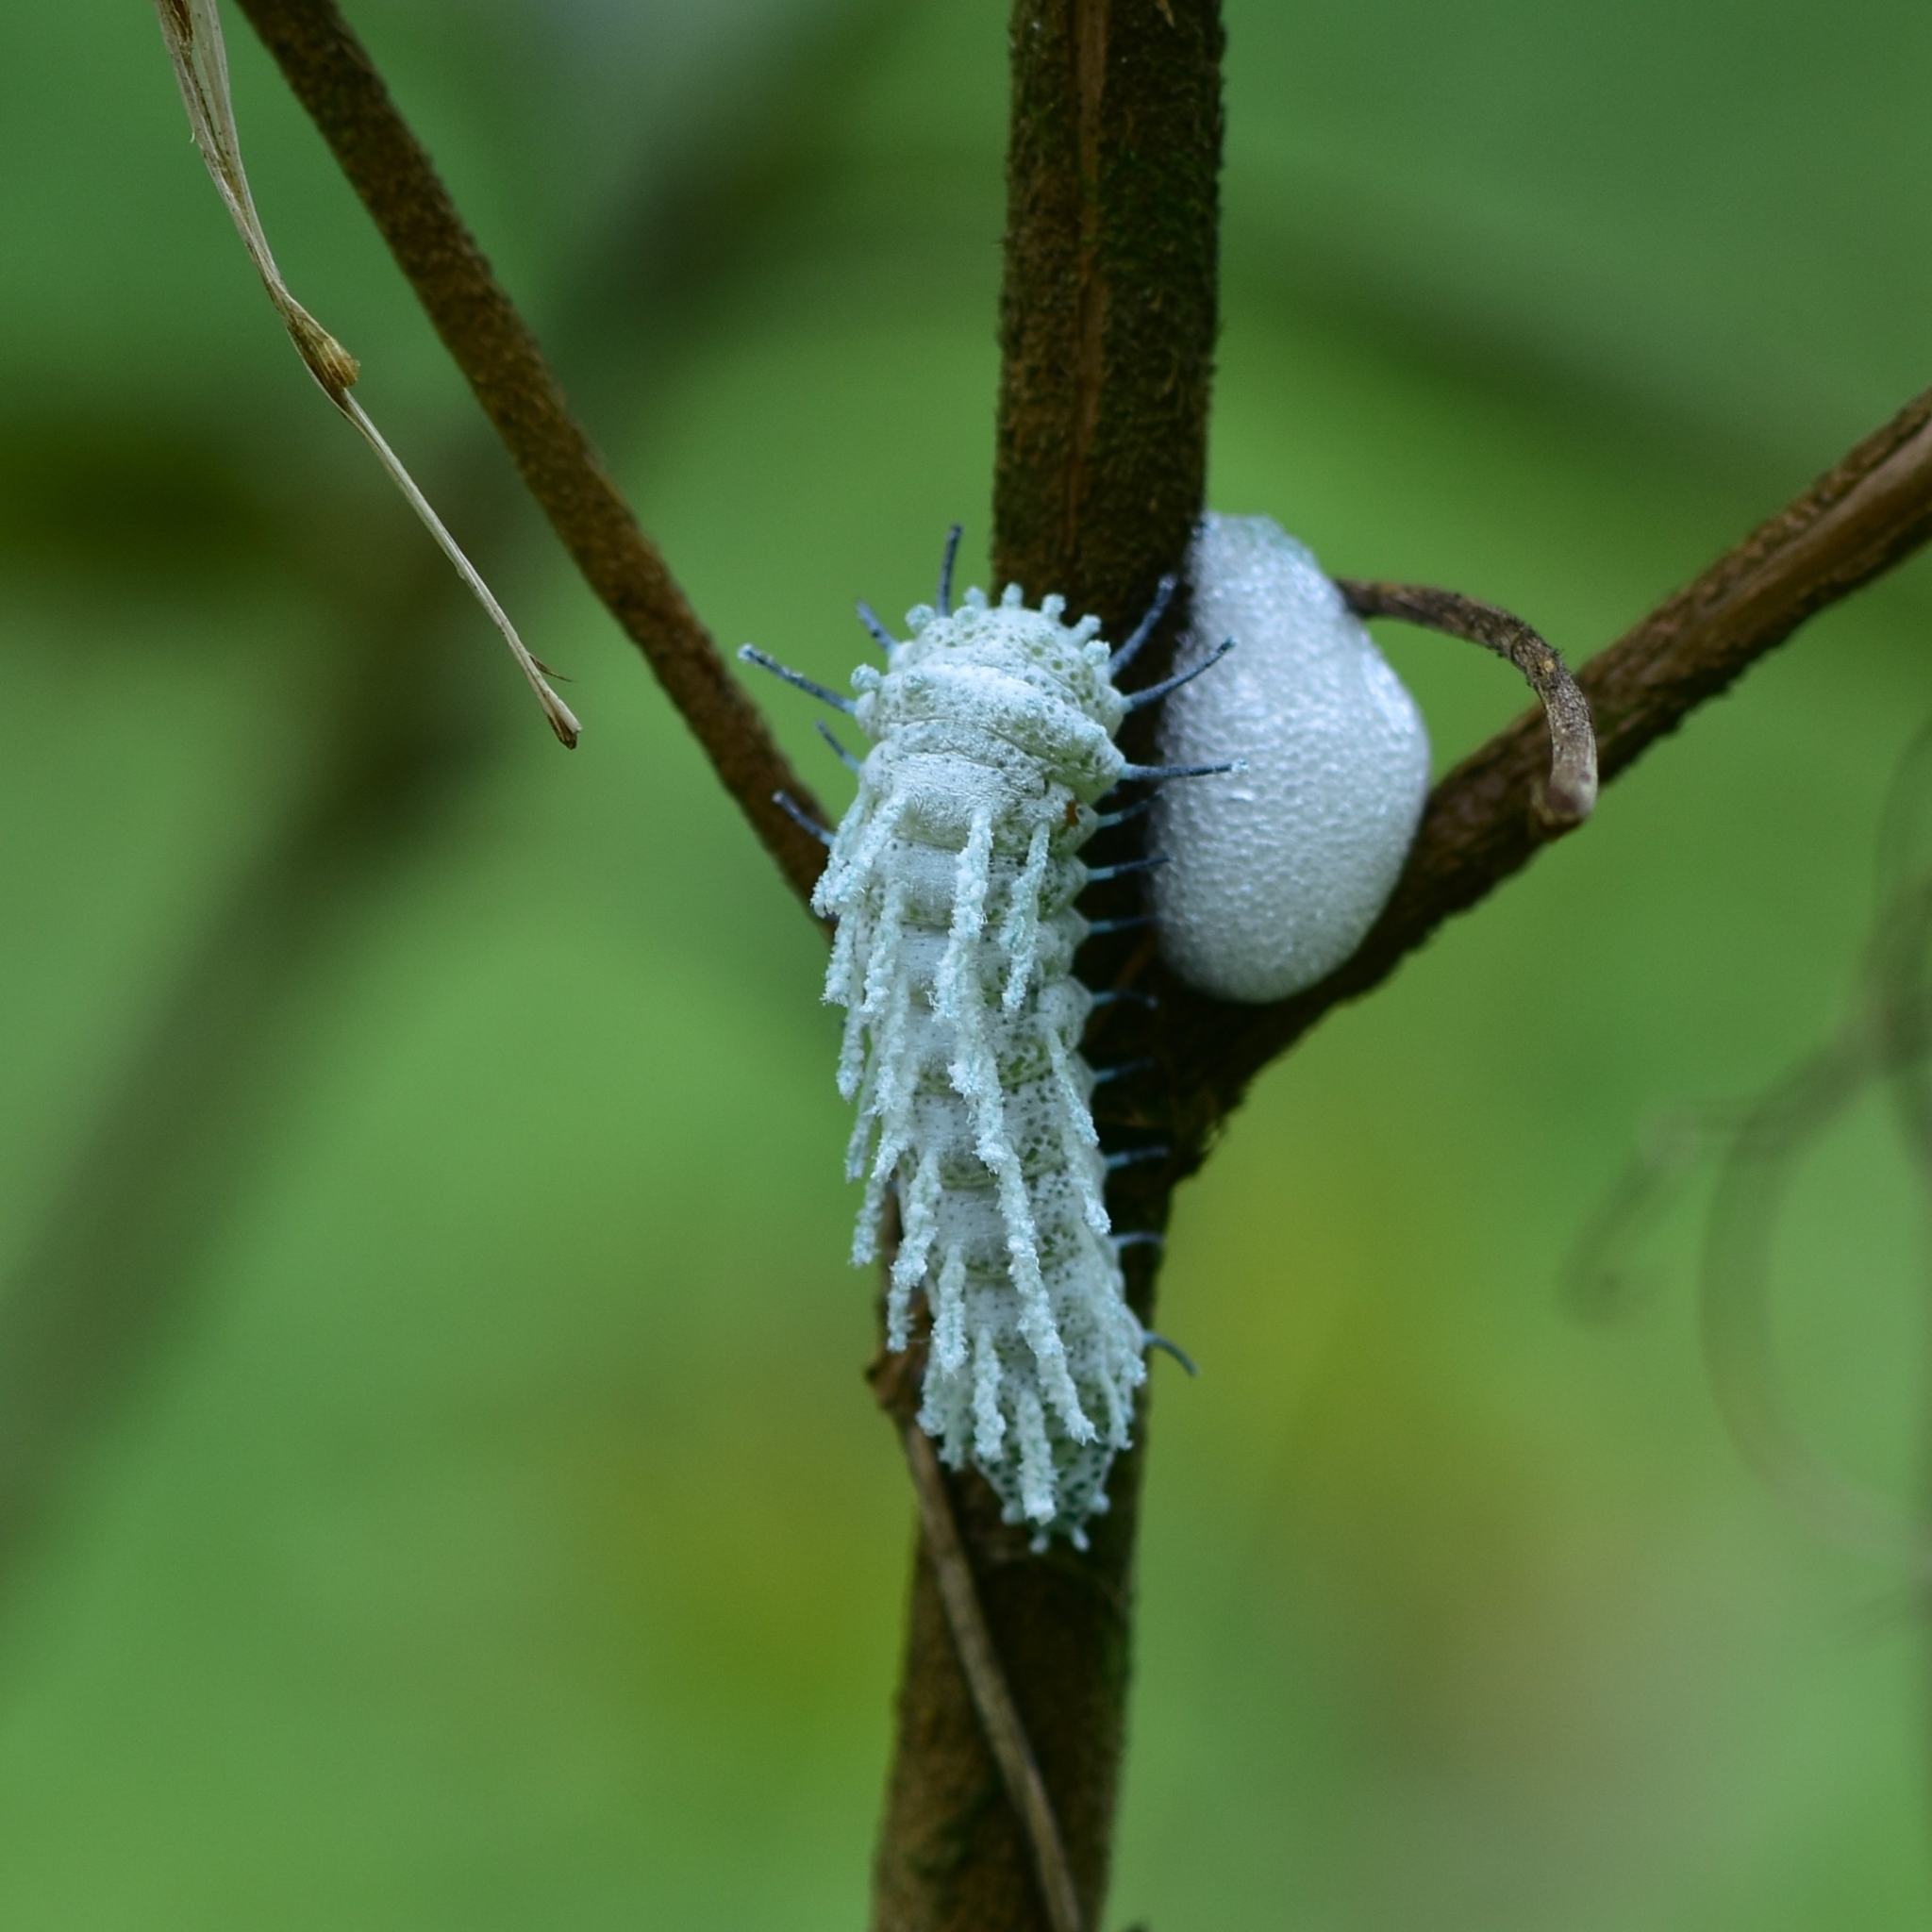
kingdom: Animalia
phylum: Arthropoda
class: Insecta
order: Lepidoptera
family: Saturniidae
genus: Attacus
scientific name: Attacus taprobanis
